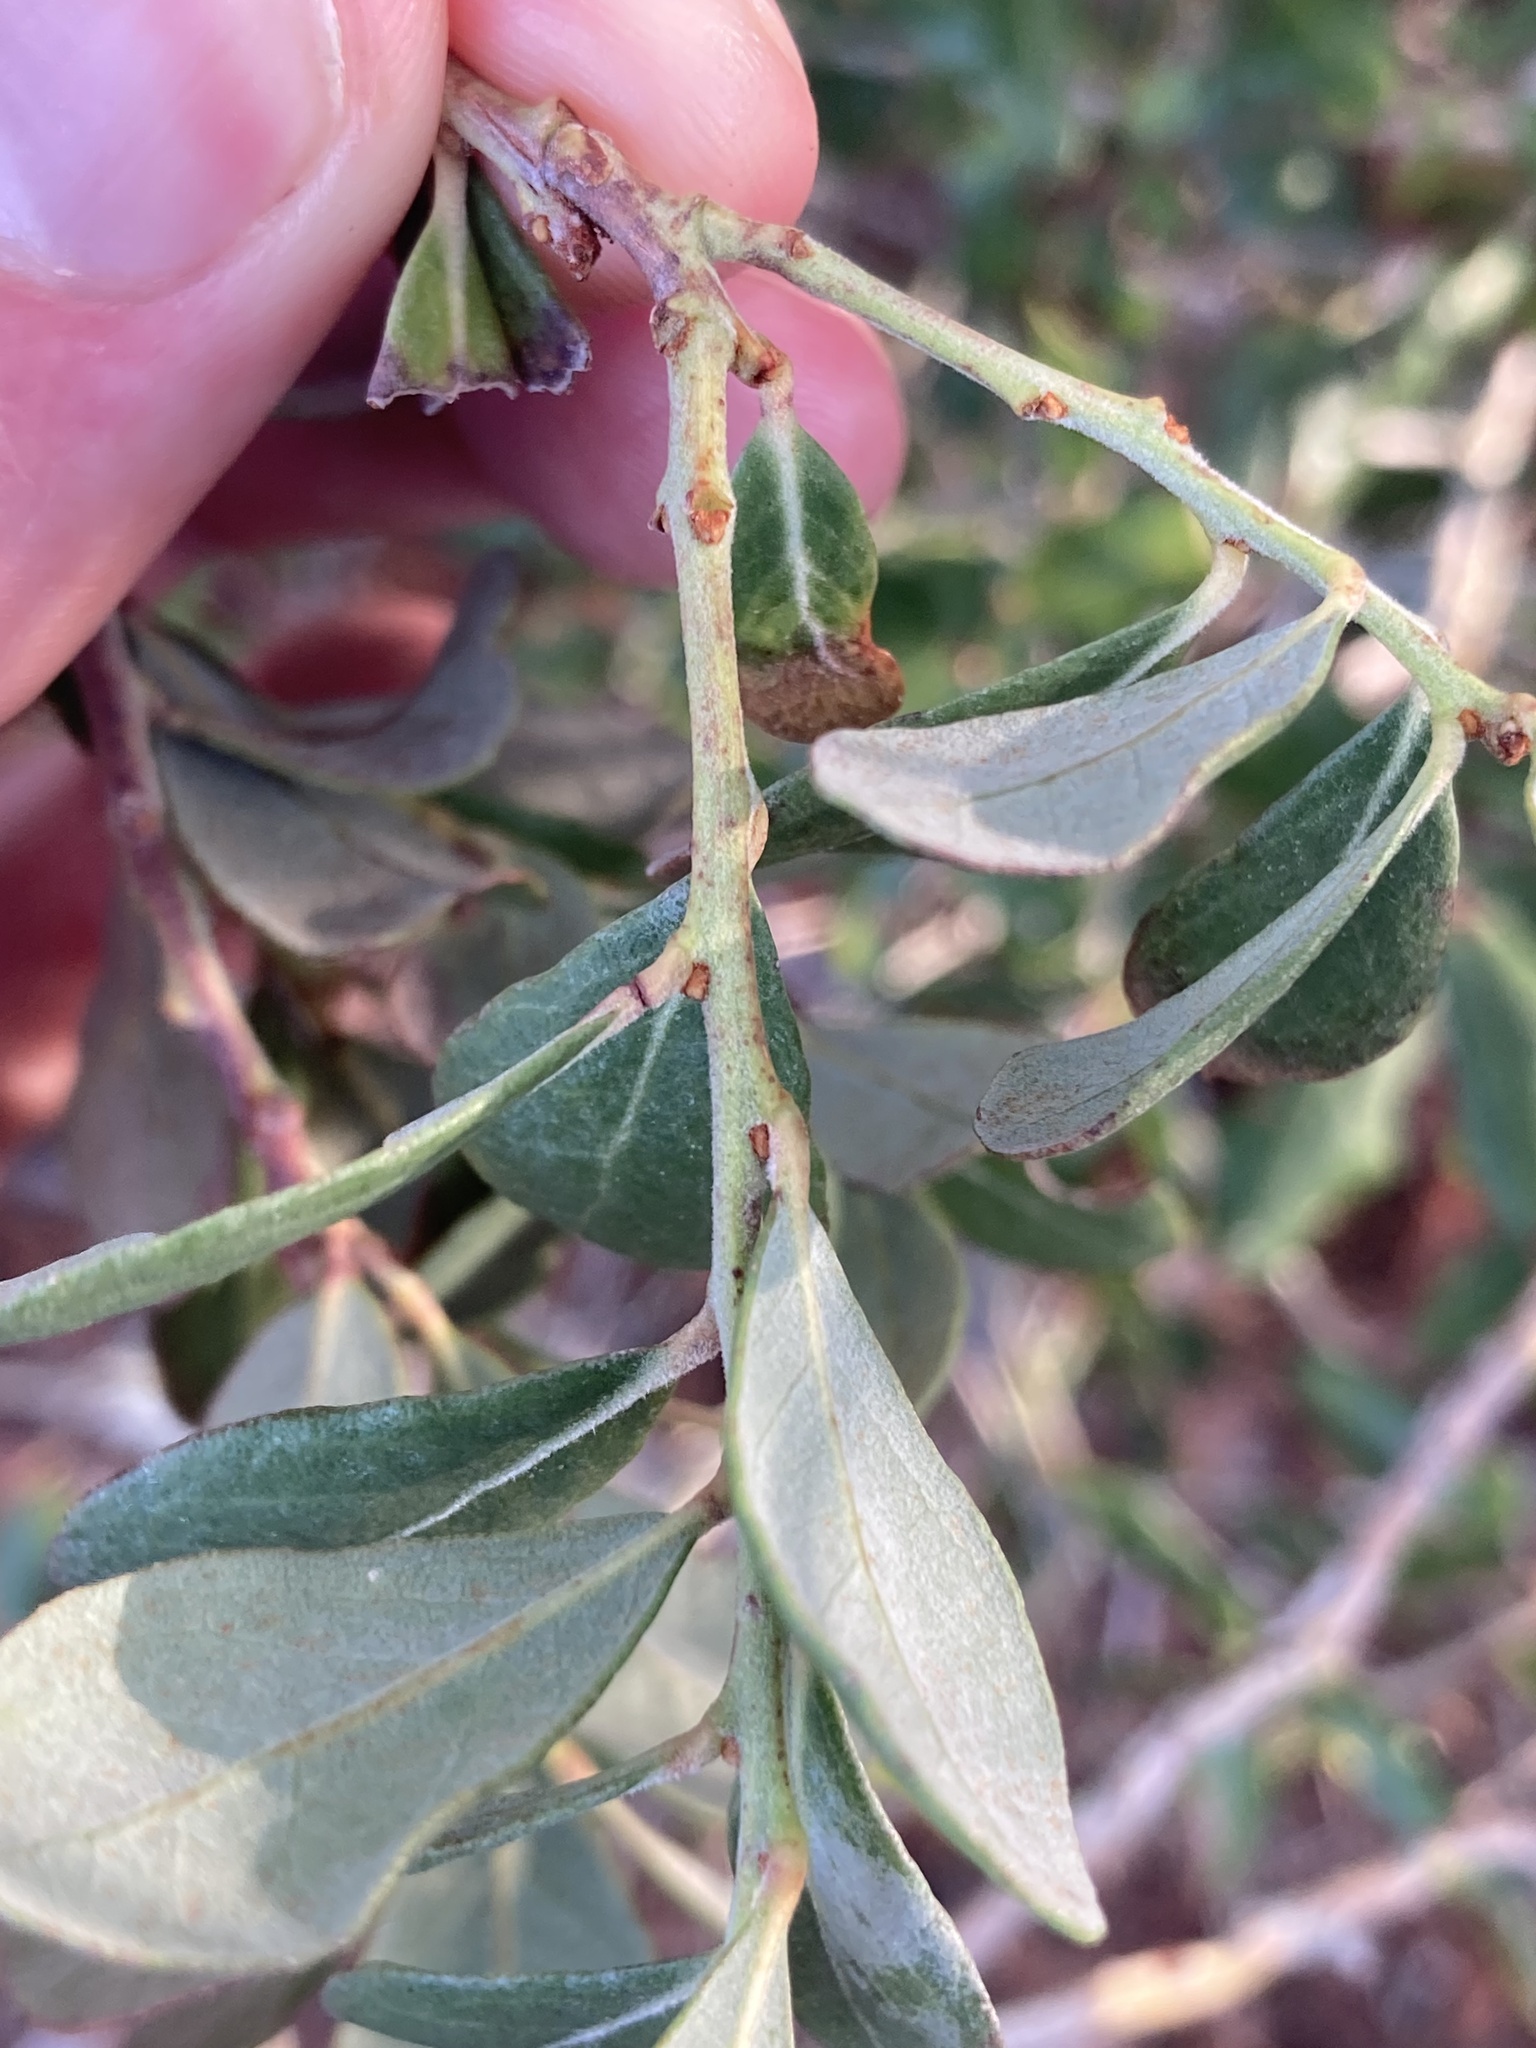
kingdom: Plantae
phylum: Tracheophyta
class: Magnoliopsida
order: Ericales
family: Ericaceae
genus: Lyonia
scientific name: Lyonia fruticosa
